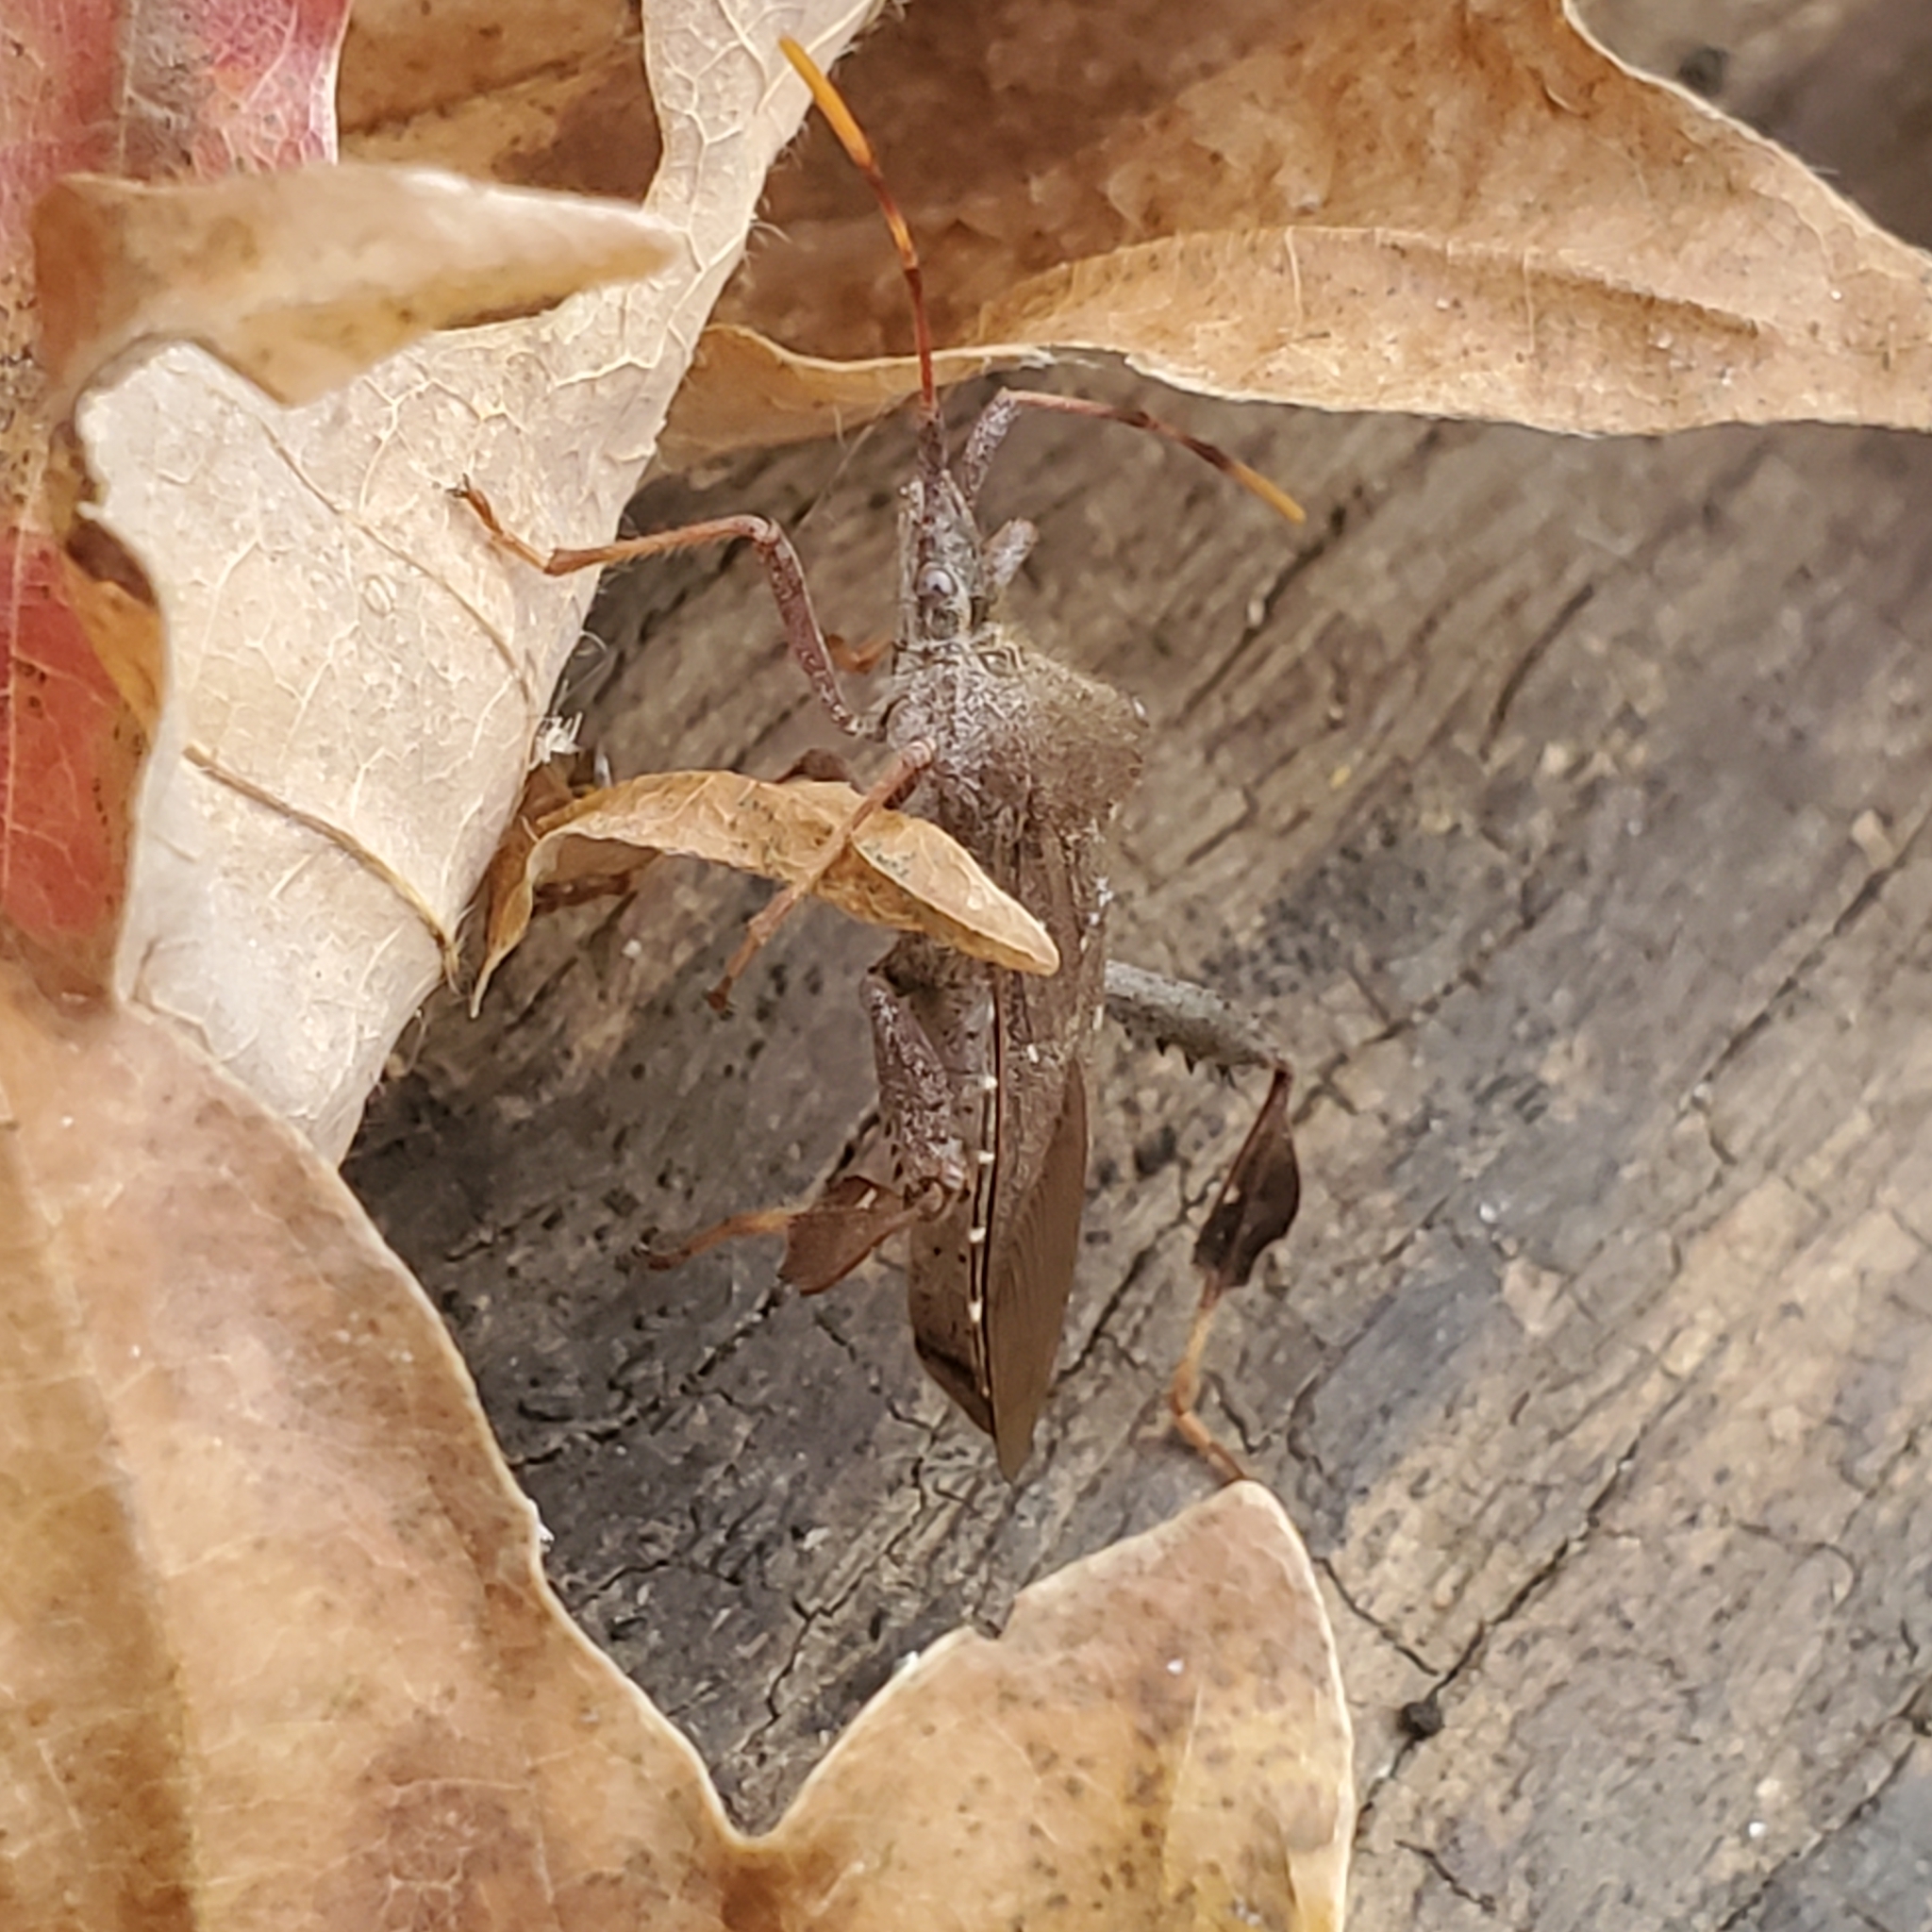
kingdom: Animalia
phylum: Arthropoda
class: Insecta
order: Hemiptera
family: Coreidae
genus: Leptoglossus
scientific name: Leptoglossus oppositus
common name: Northern leaf-footed bug
